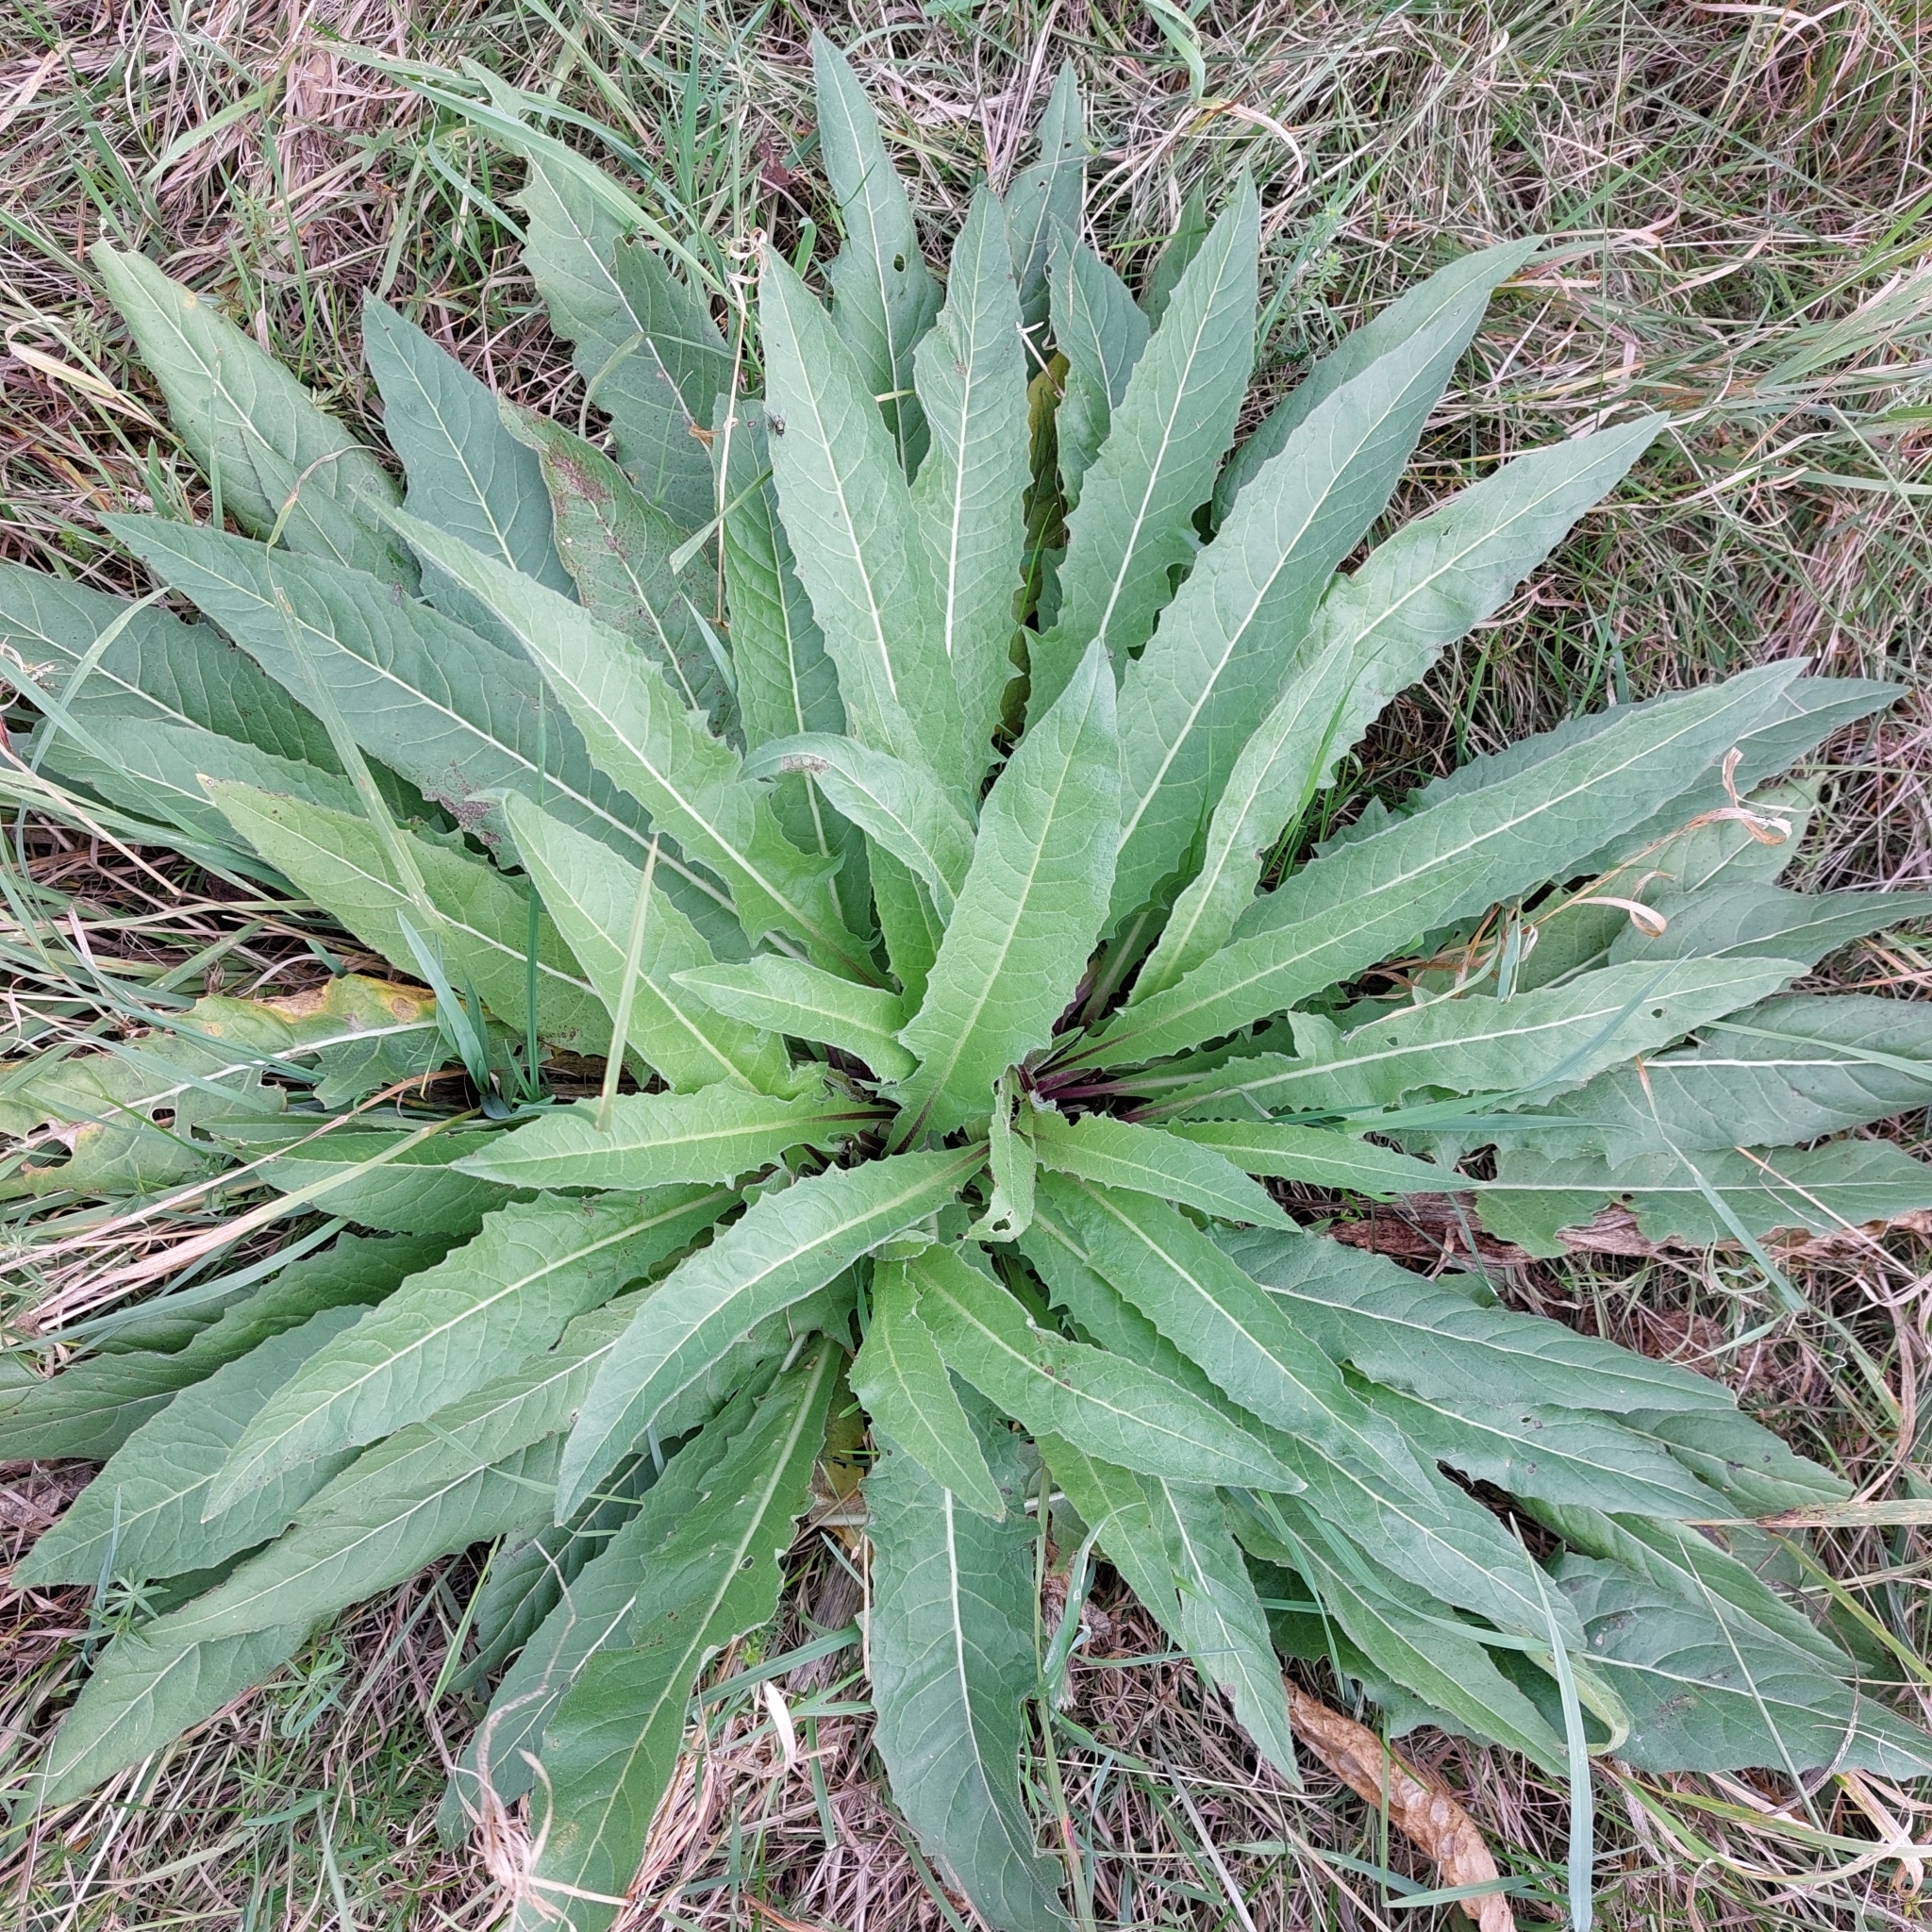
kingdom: Plantae
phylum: Tracheophyta
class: Magnoliopsida
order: Brassicales
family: Brassicaceae
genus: Bunias
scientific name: Bunias orientalis
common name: Warty-cabbage
